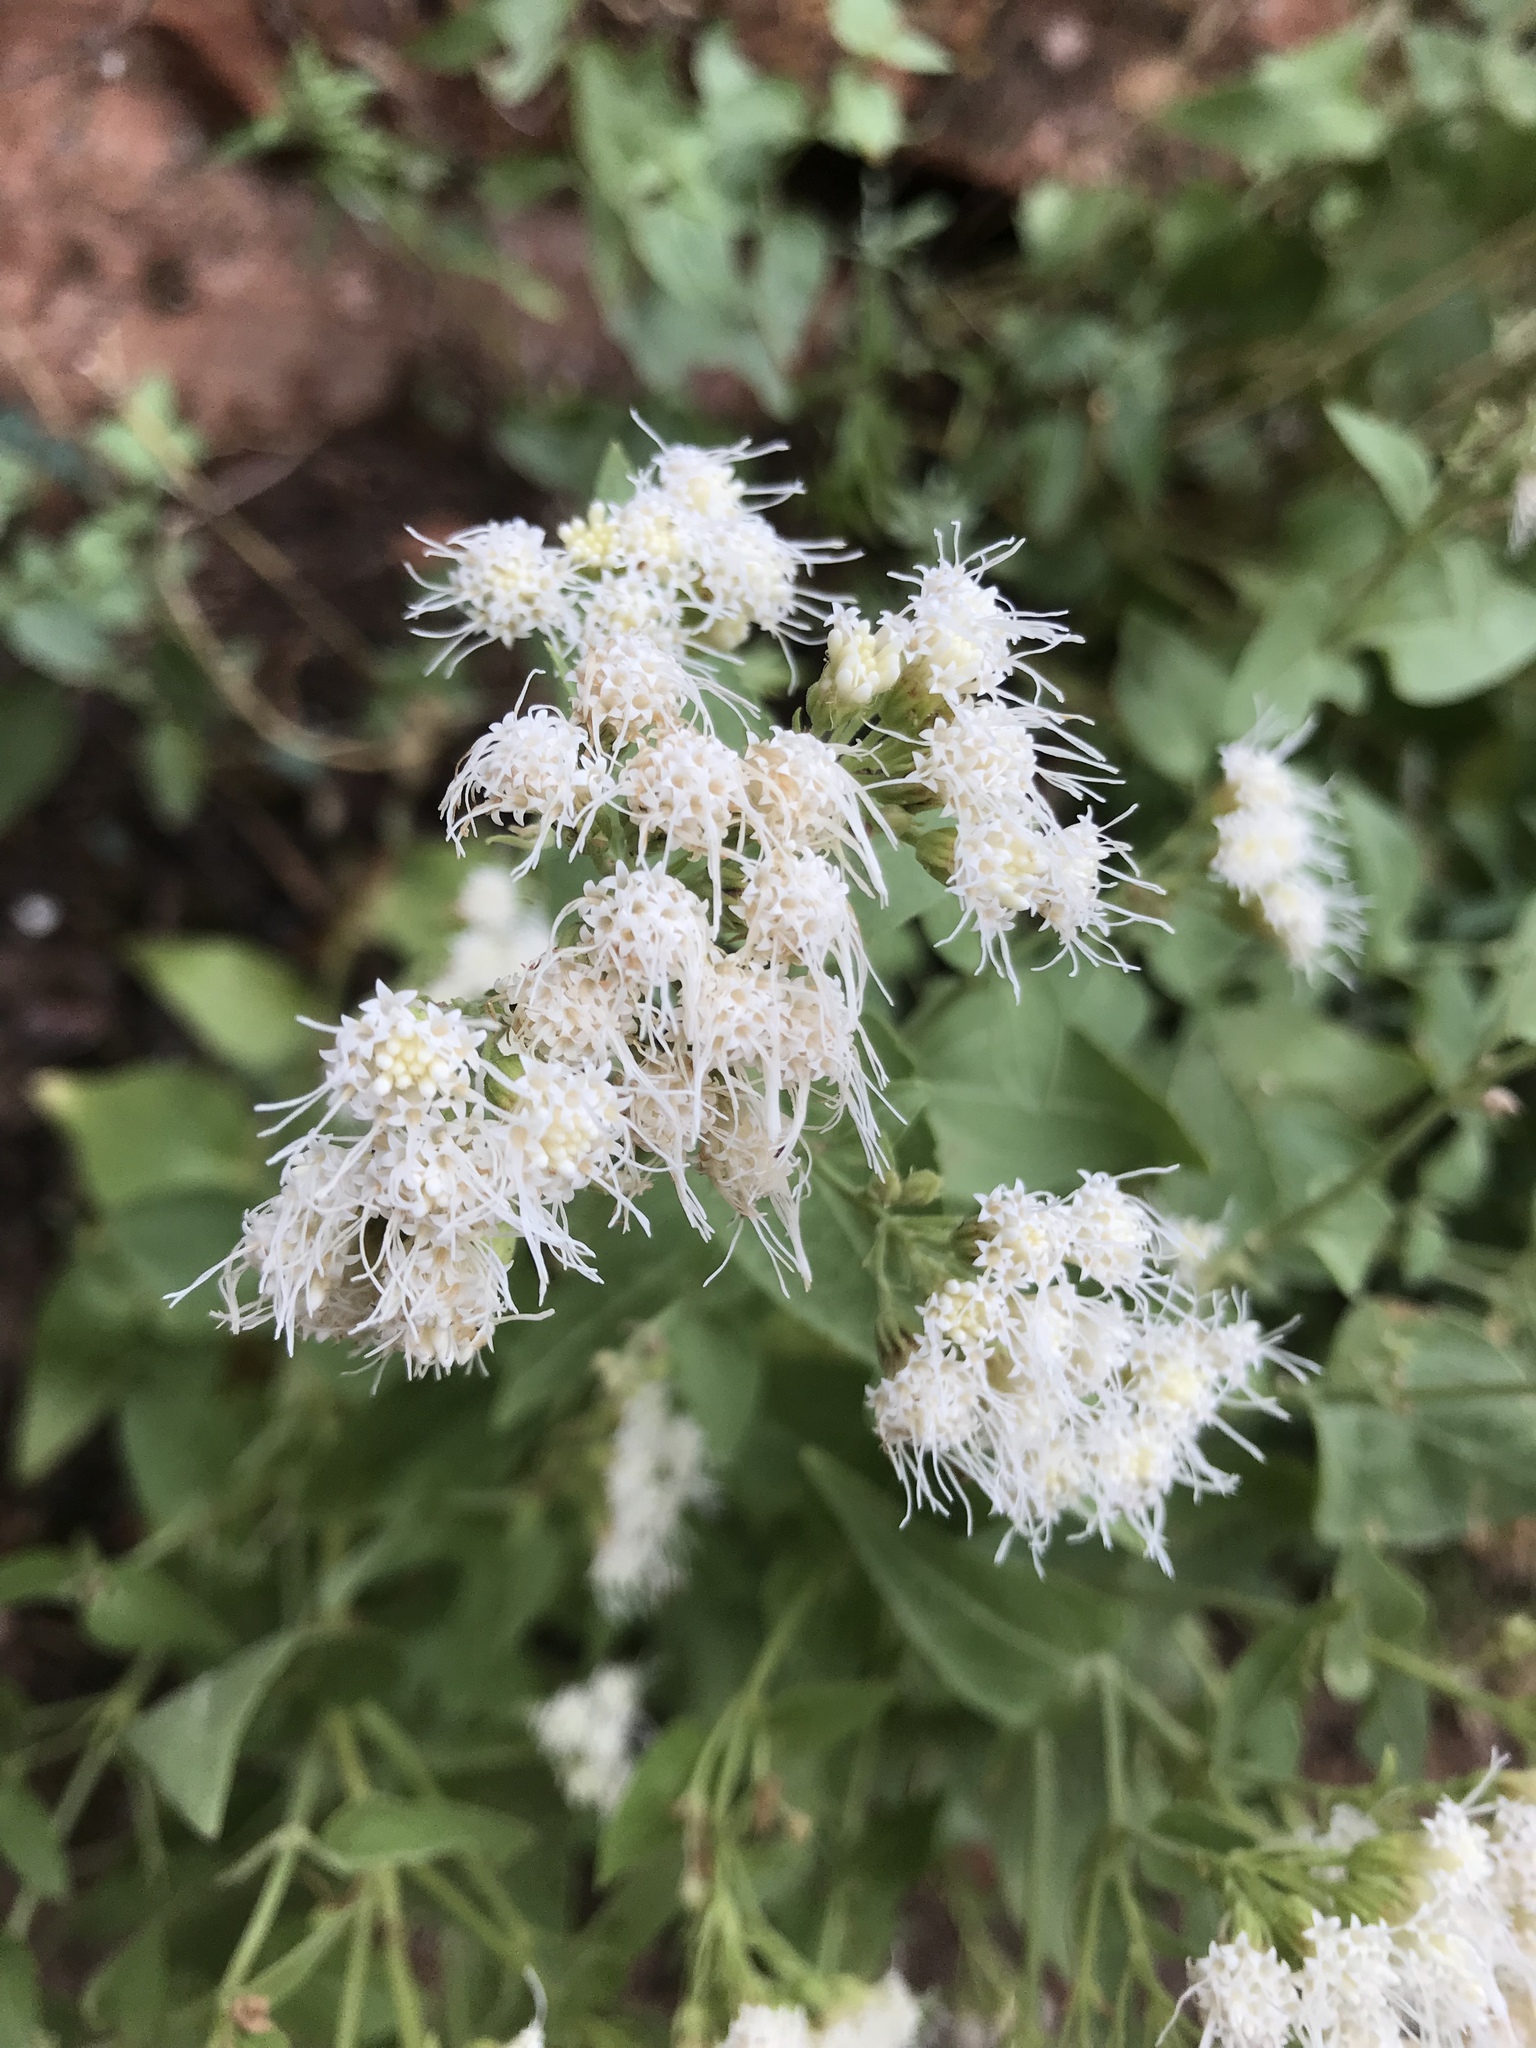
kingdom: Plantae
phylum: Tracheophyta
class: Magnoliopsida
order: Asterales
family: Asteraceae
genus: Ageratina
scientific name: Ageratina herbacea
